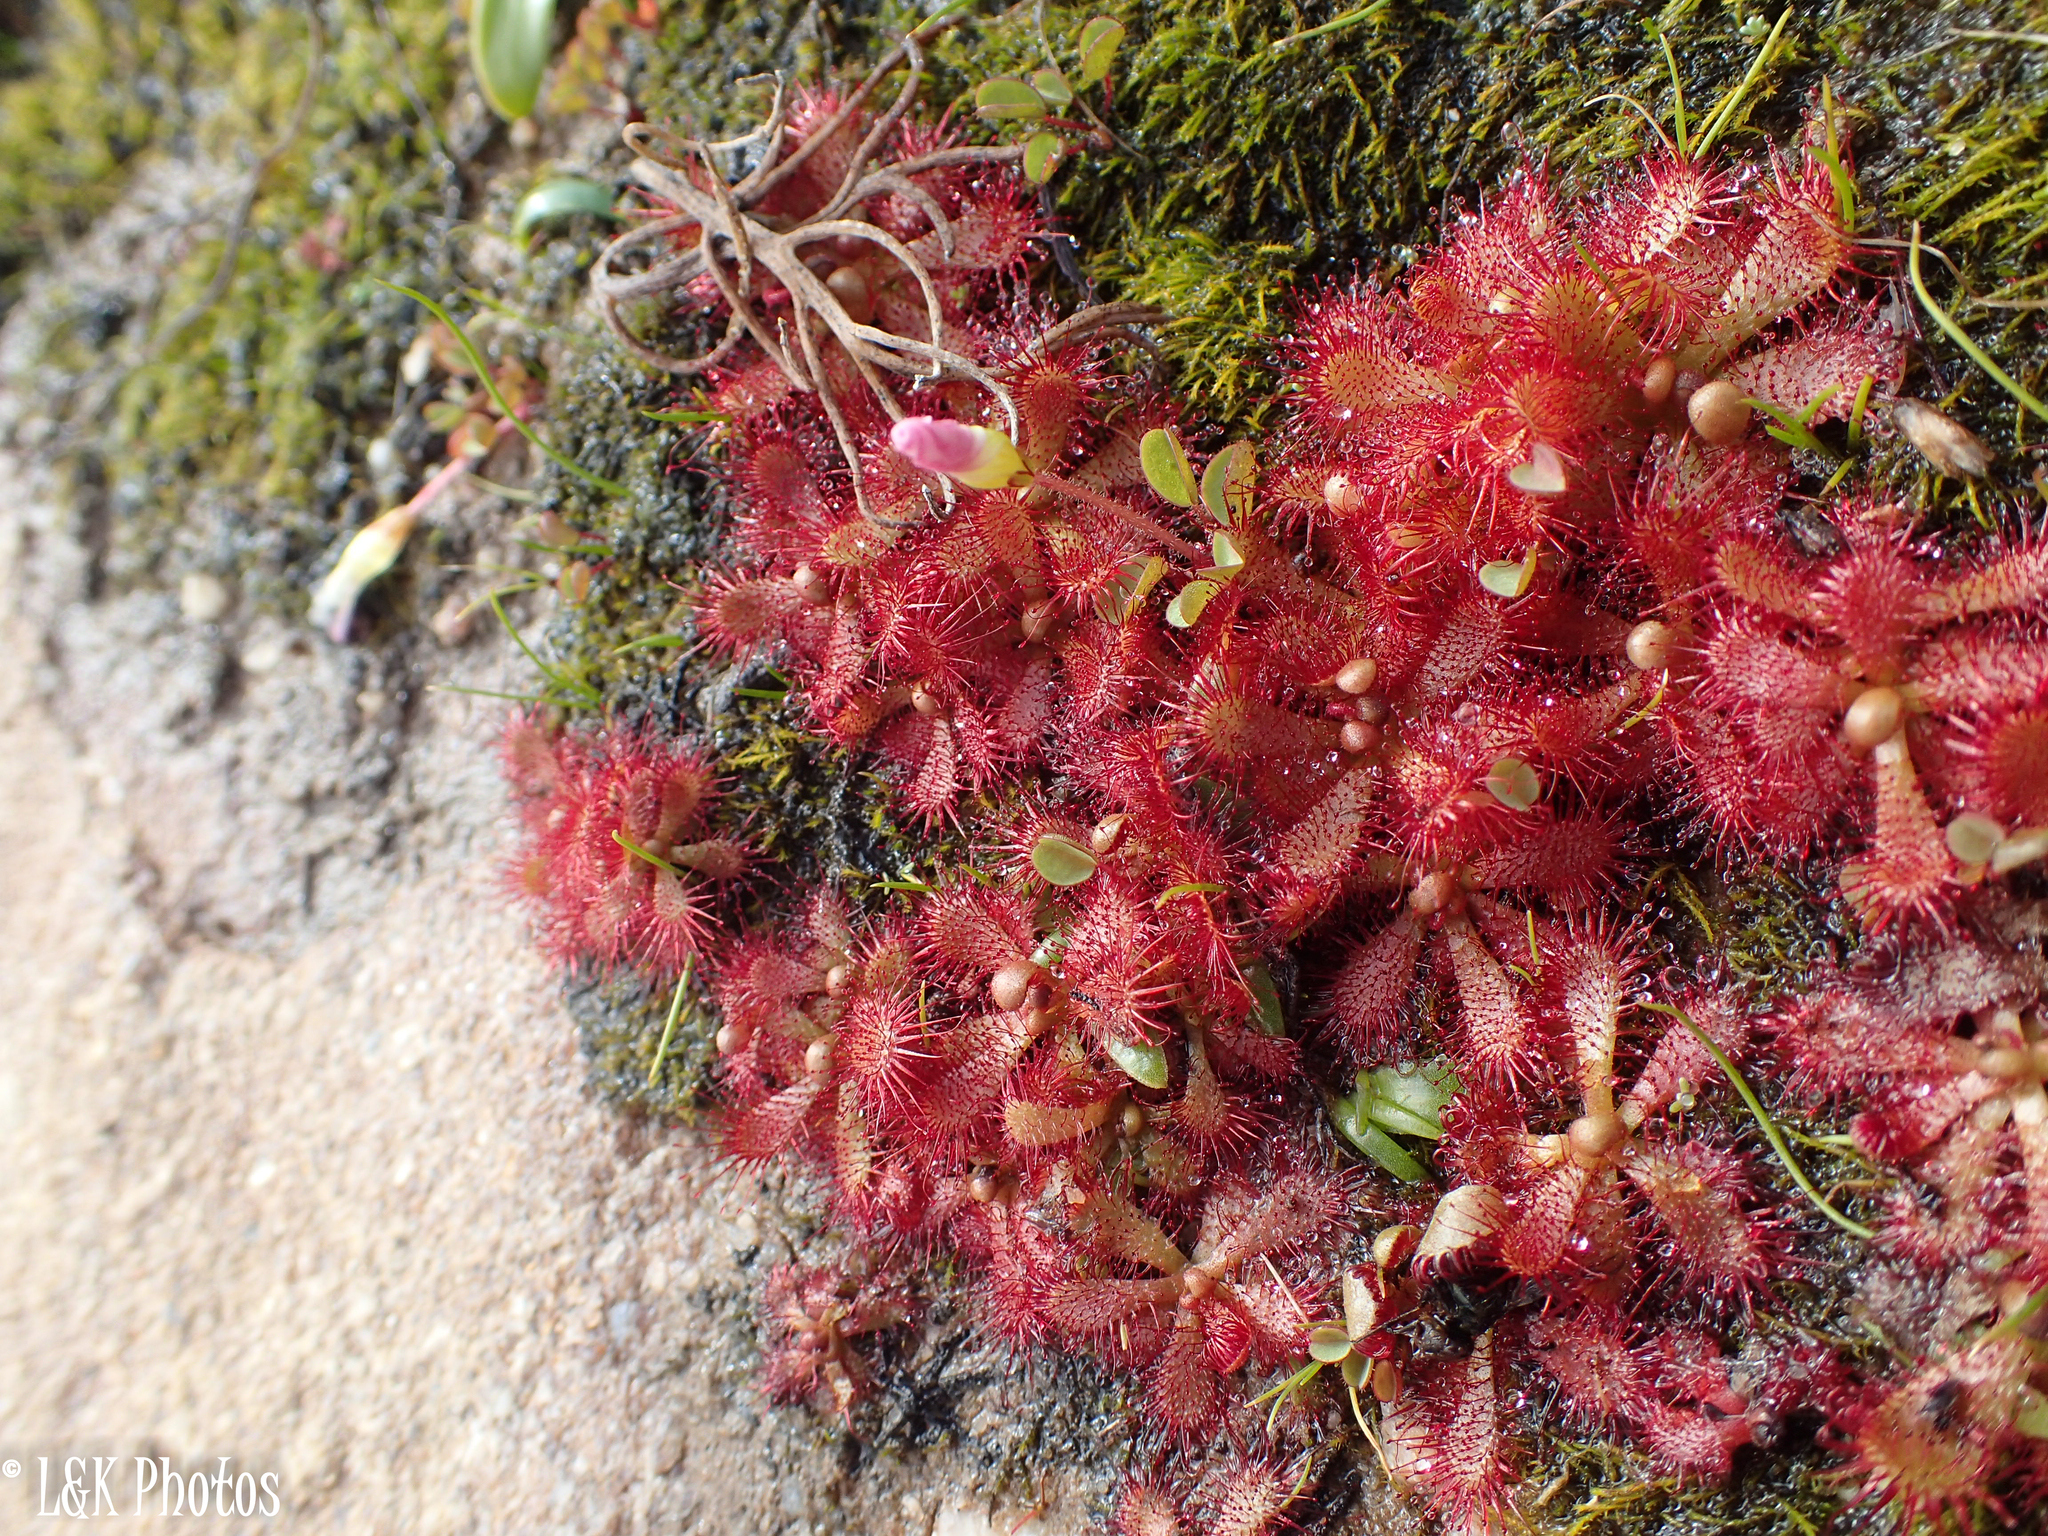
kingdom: Plantae
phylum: Tracheophyta
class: Magnoliopsida
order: Caryophyllales
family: Droseraceae
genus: Drosera
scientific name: Drosera trinervia
